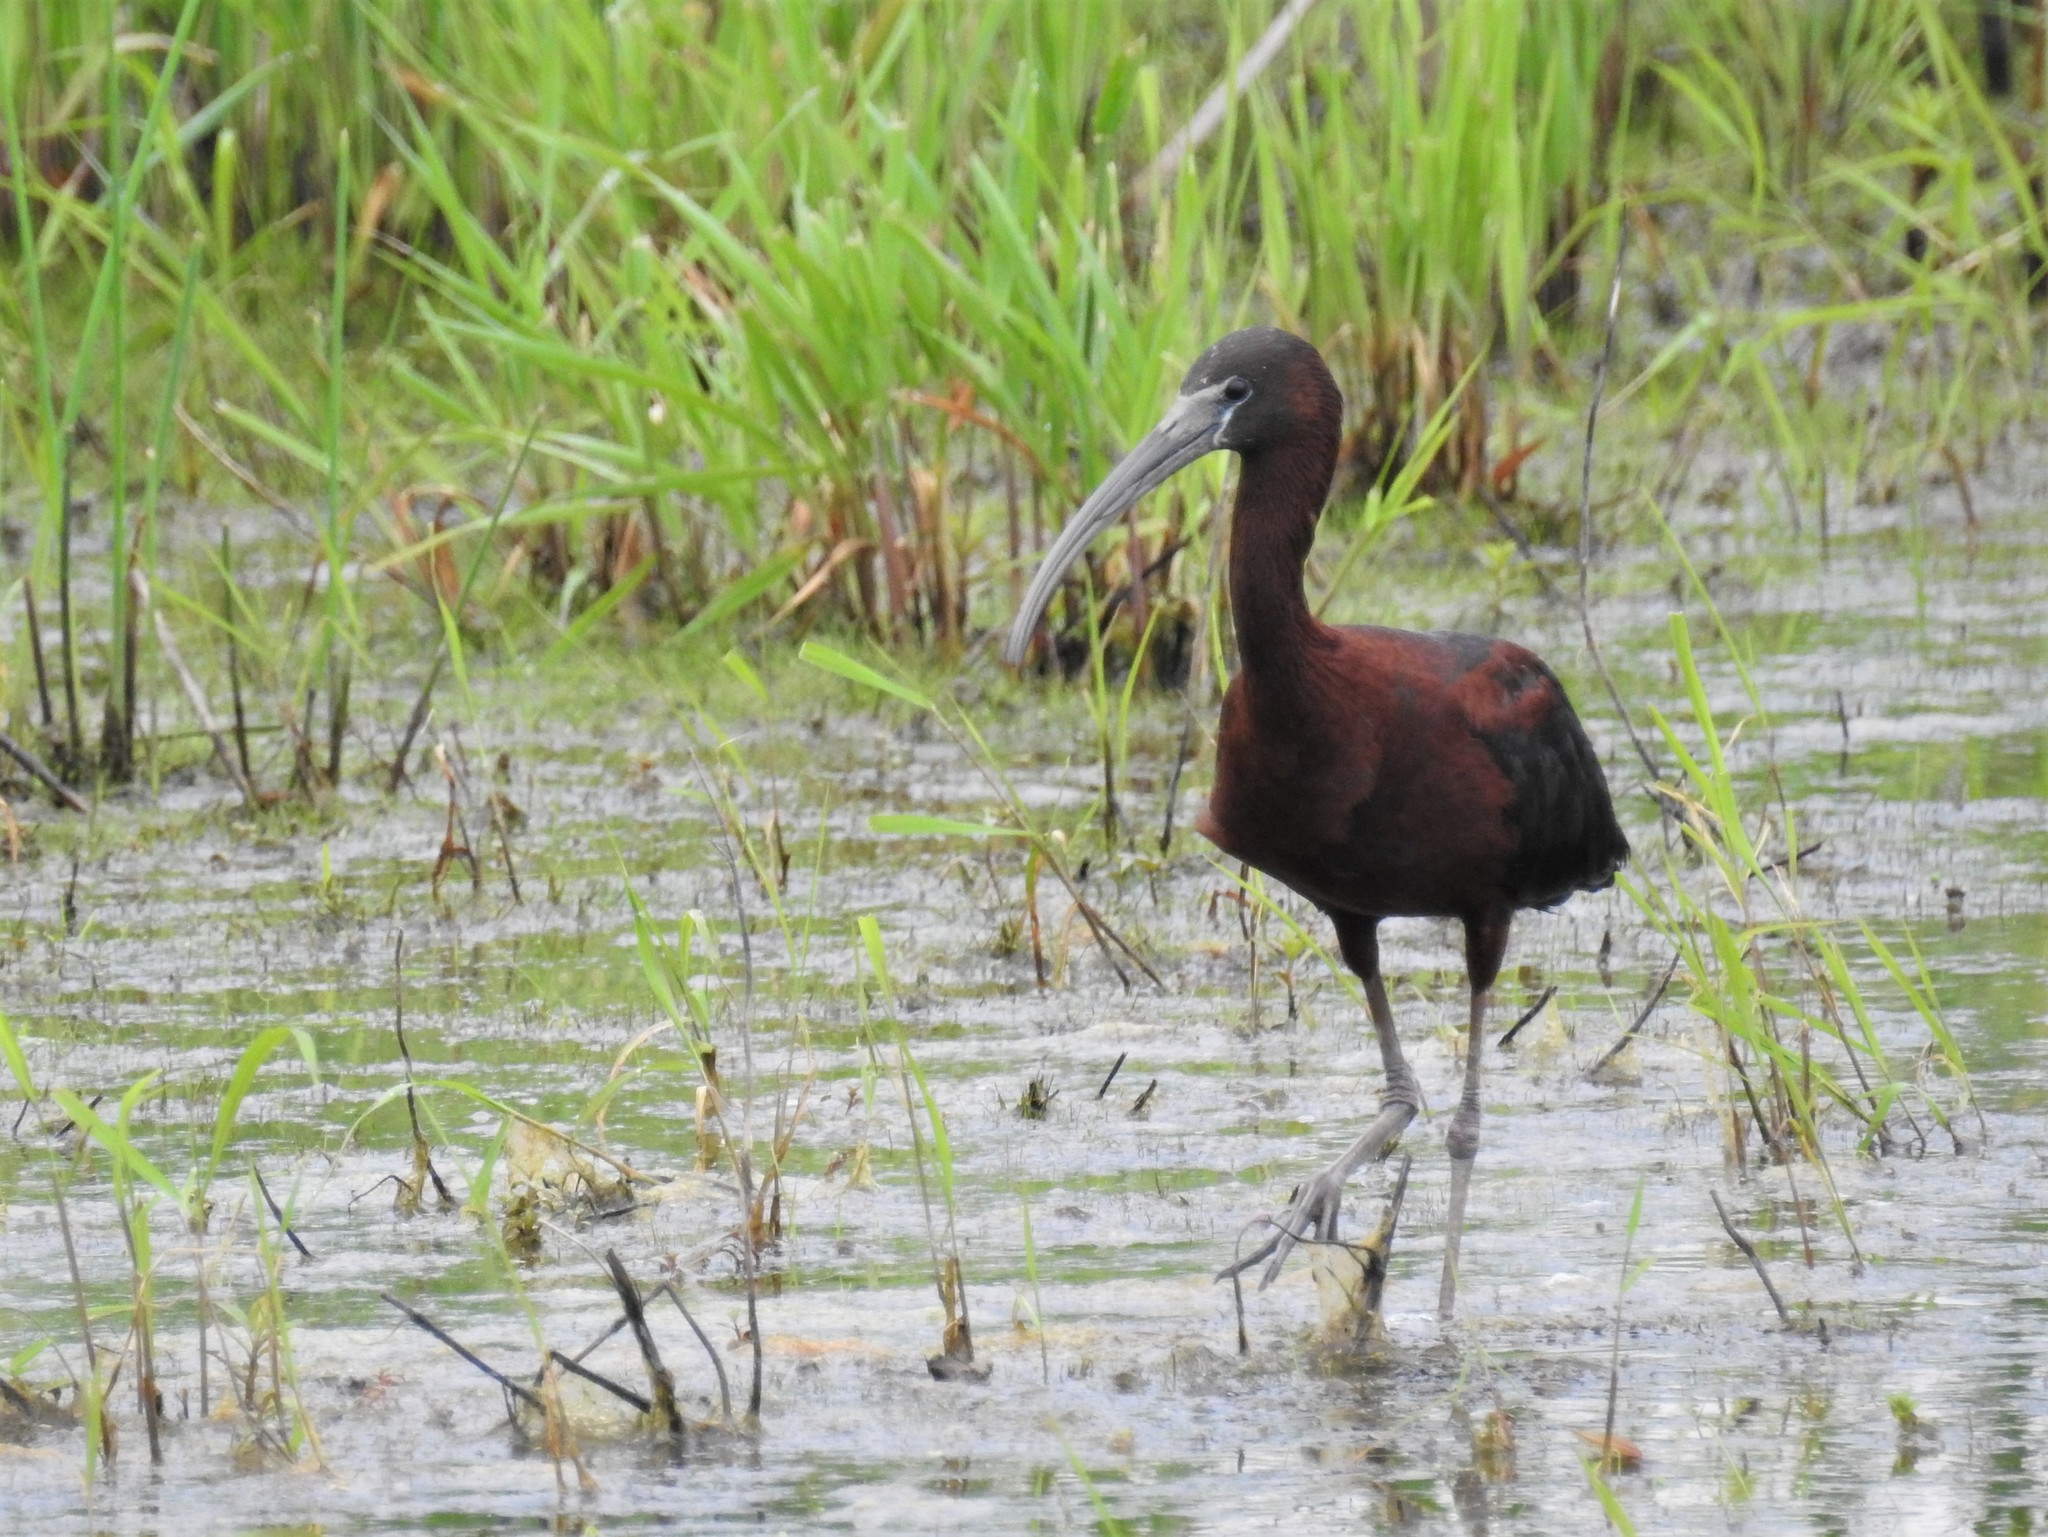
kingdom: Animalia
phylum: Chordata
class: Aves
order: Pelecaniformes
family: Threskiornithidae
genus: Plegadis
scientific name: Plegadis falcinellus
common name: Glossy ibis
